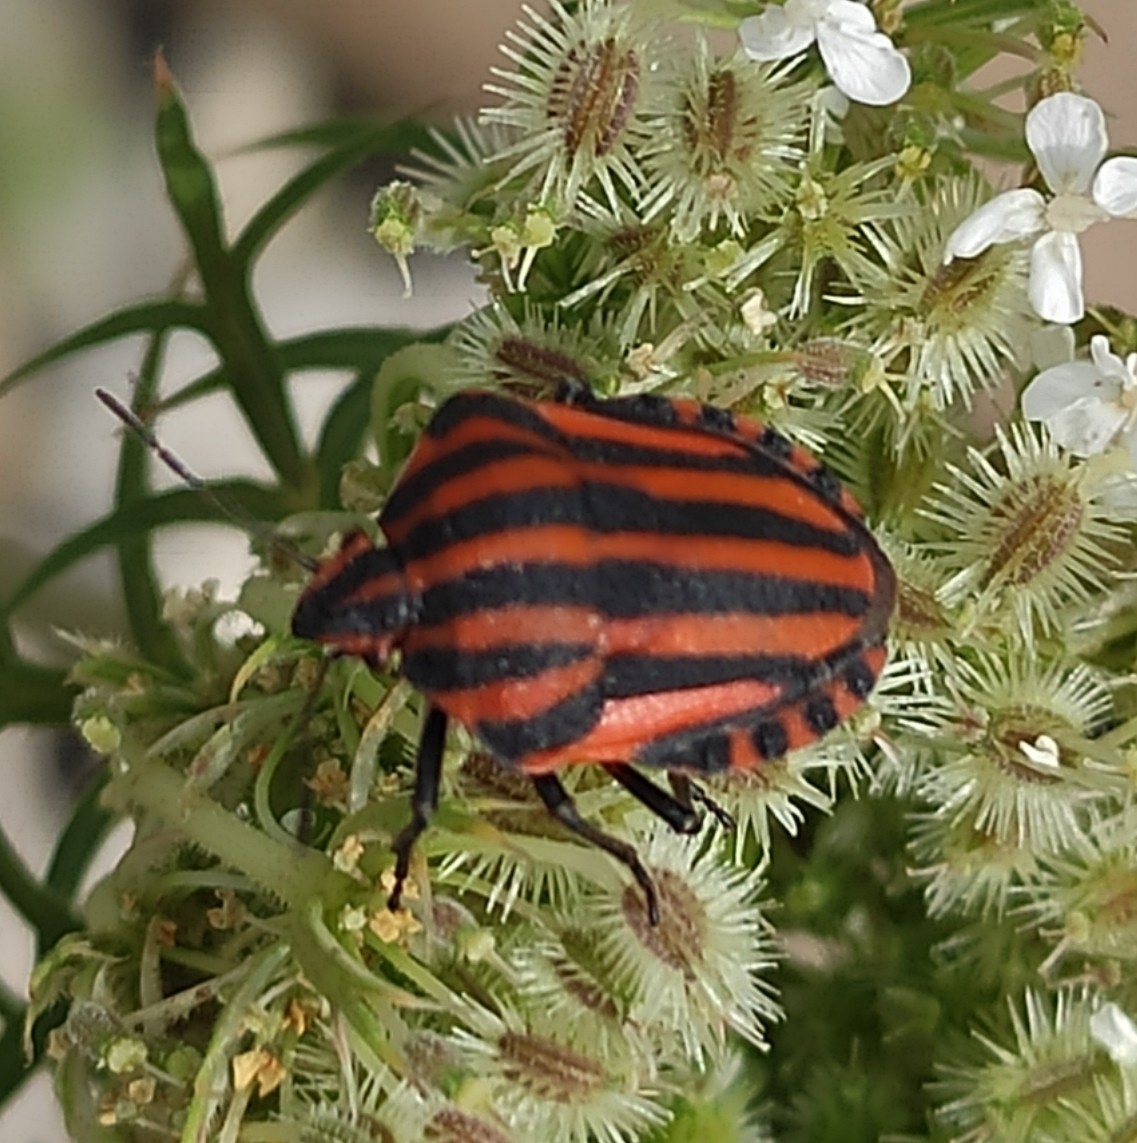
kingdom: Animalia
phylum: Arthropoda
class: Insecta
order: Hemiptera
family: Pentatomidae
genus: Graphosoma
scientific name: Graphosoma italicum
